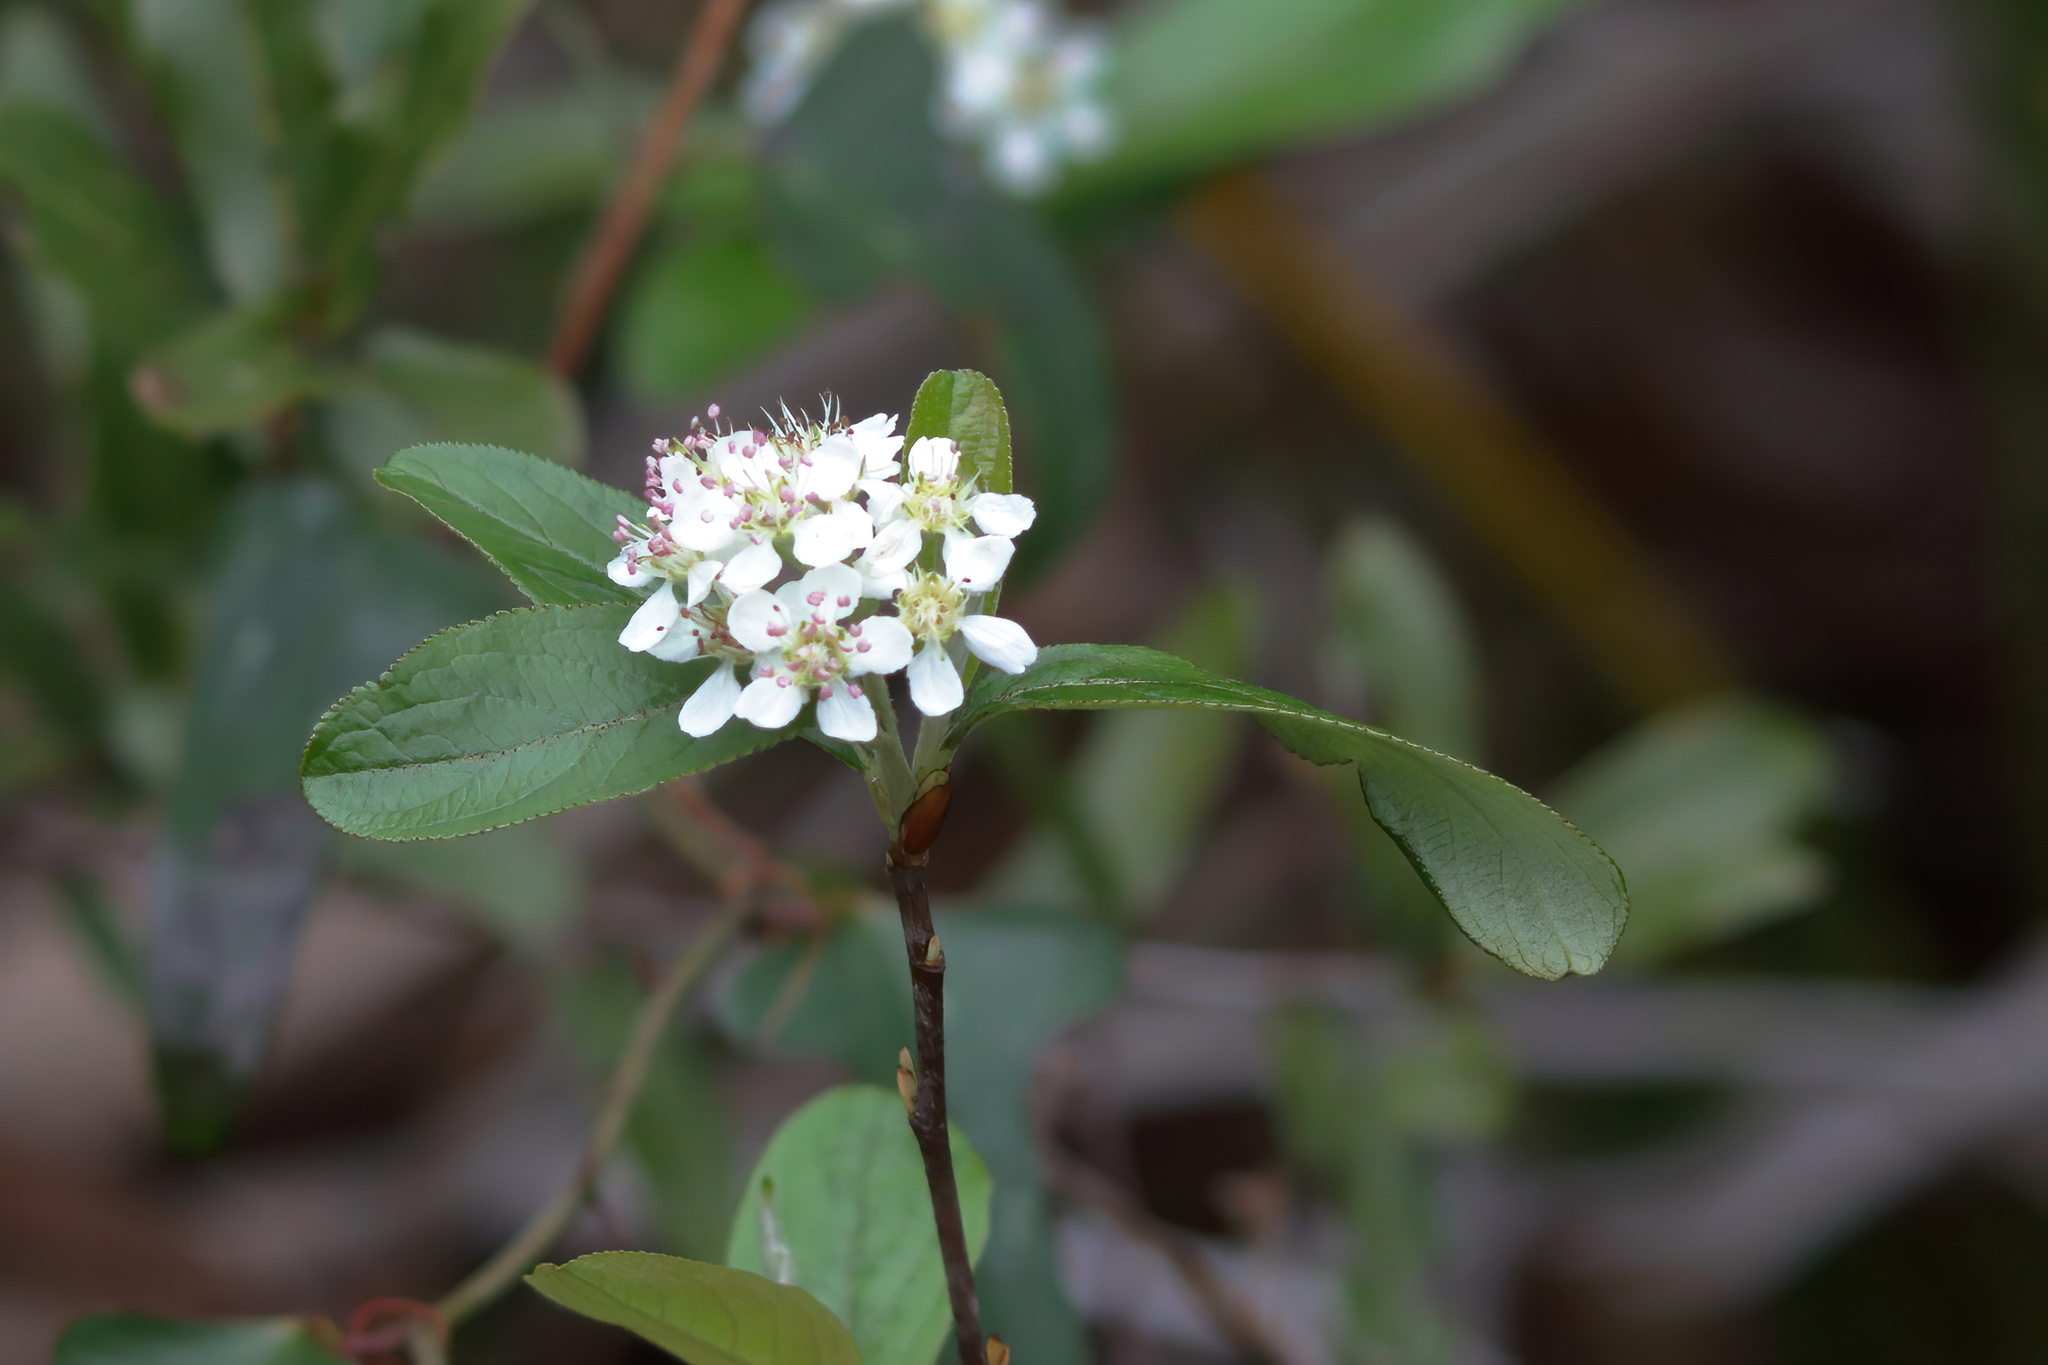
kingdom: Plantae
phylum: Tracheophyta
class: Magnoliopsida
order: Rosales
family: Rosaceae
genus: Aronia
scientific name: Aronia arbutifolia
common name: Red chokeberry
